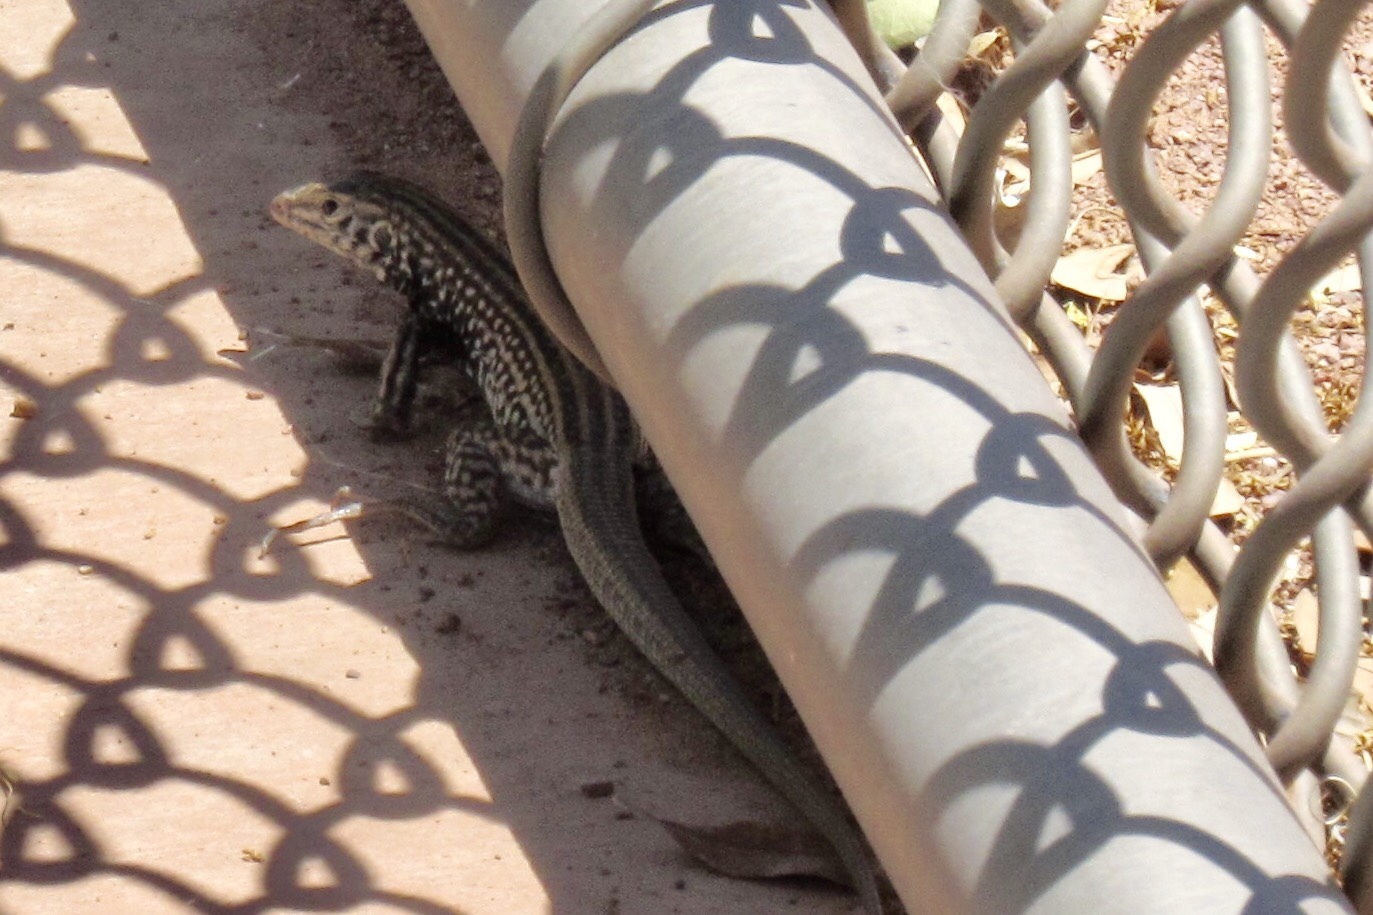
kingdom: Animalia
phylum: Chordata
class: Squamata
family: Teiidae
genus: Aspidoscelis
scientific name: Aspidoscelis tigris
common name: Tiger whiptail
